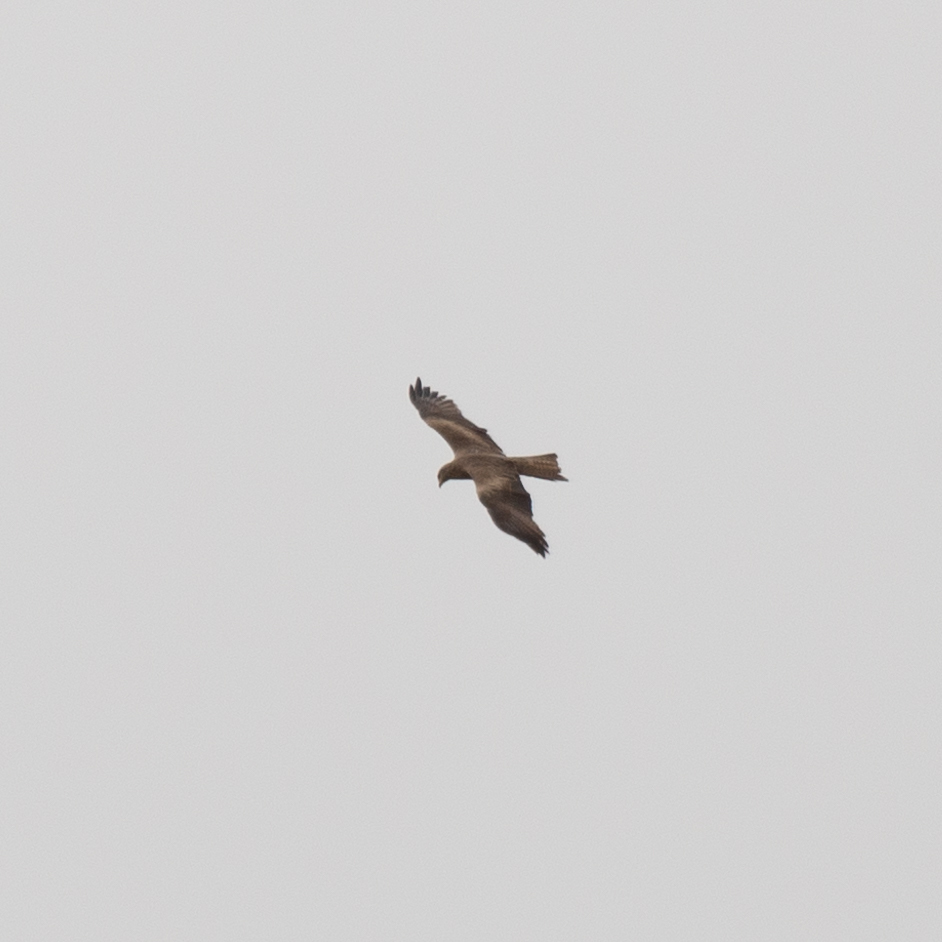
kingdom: Animalia
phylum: Chordata
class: Aves
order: Accipitriformes
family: Accipitridae
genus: Milvus
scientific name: Milvus migrans
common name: Black kite
